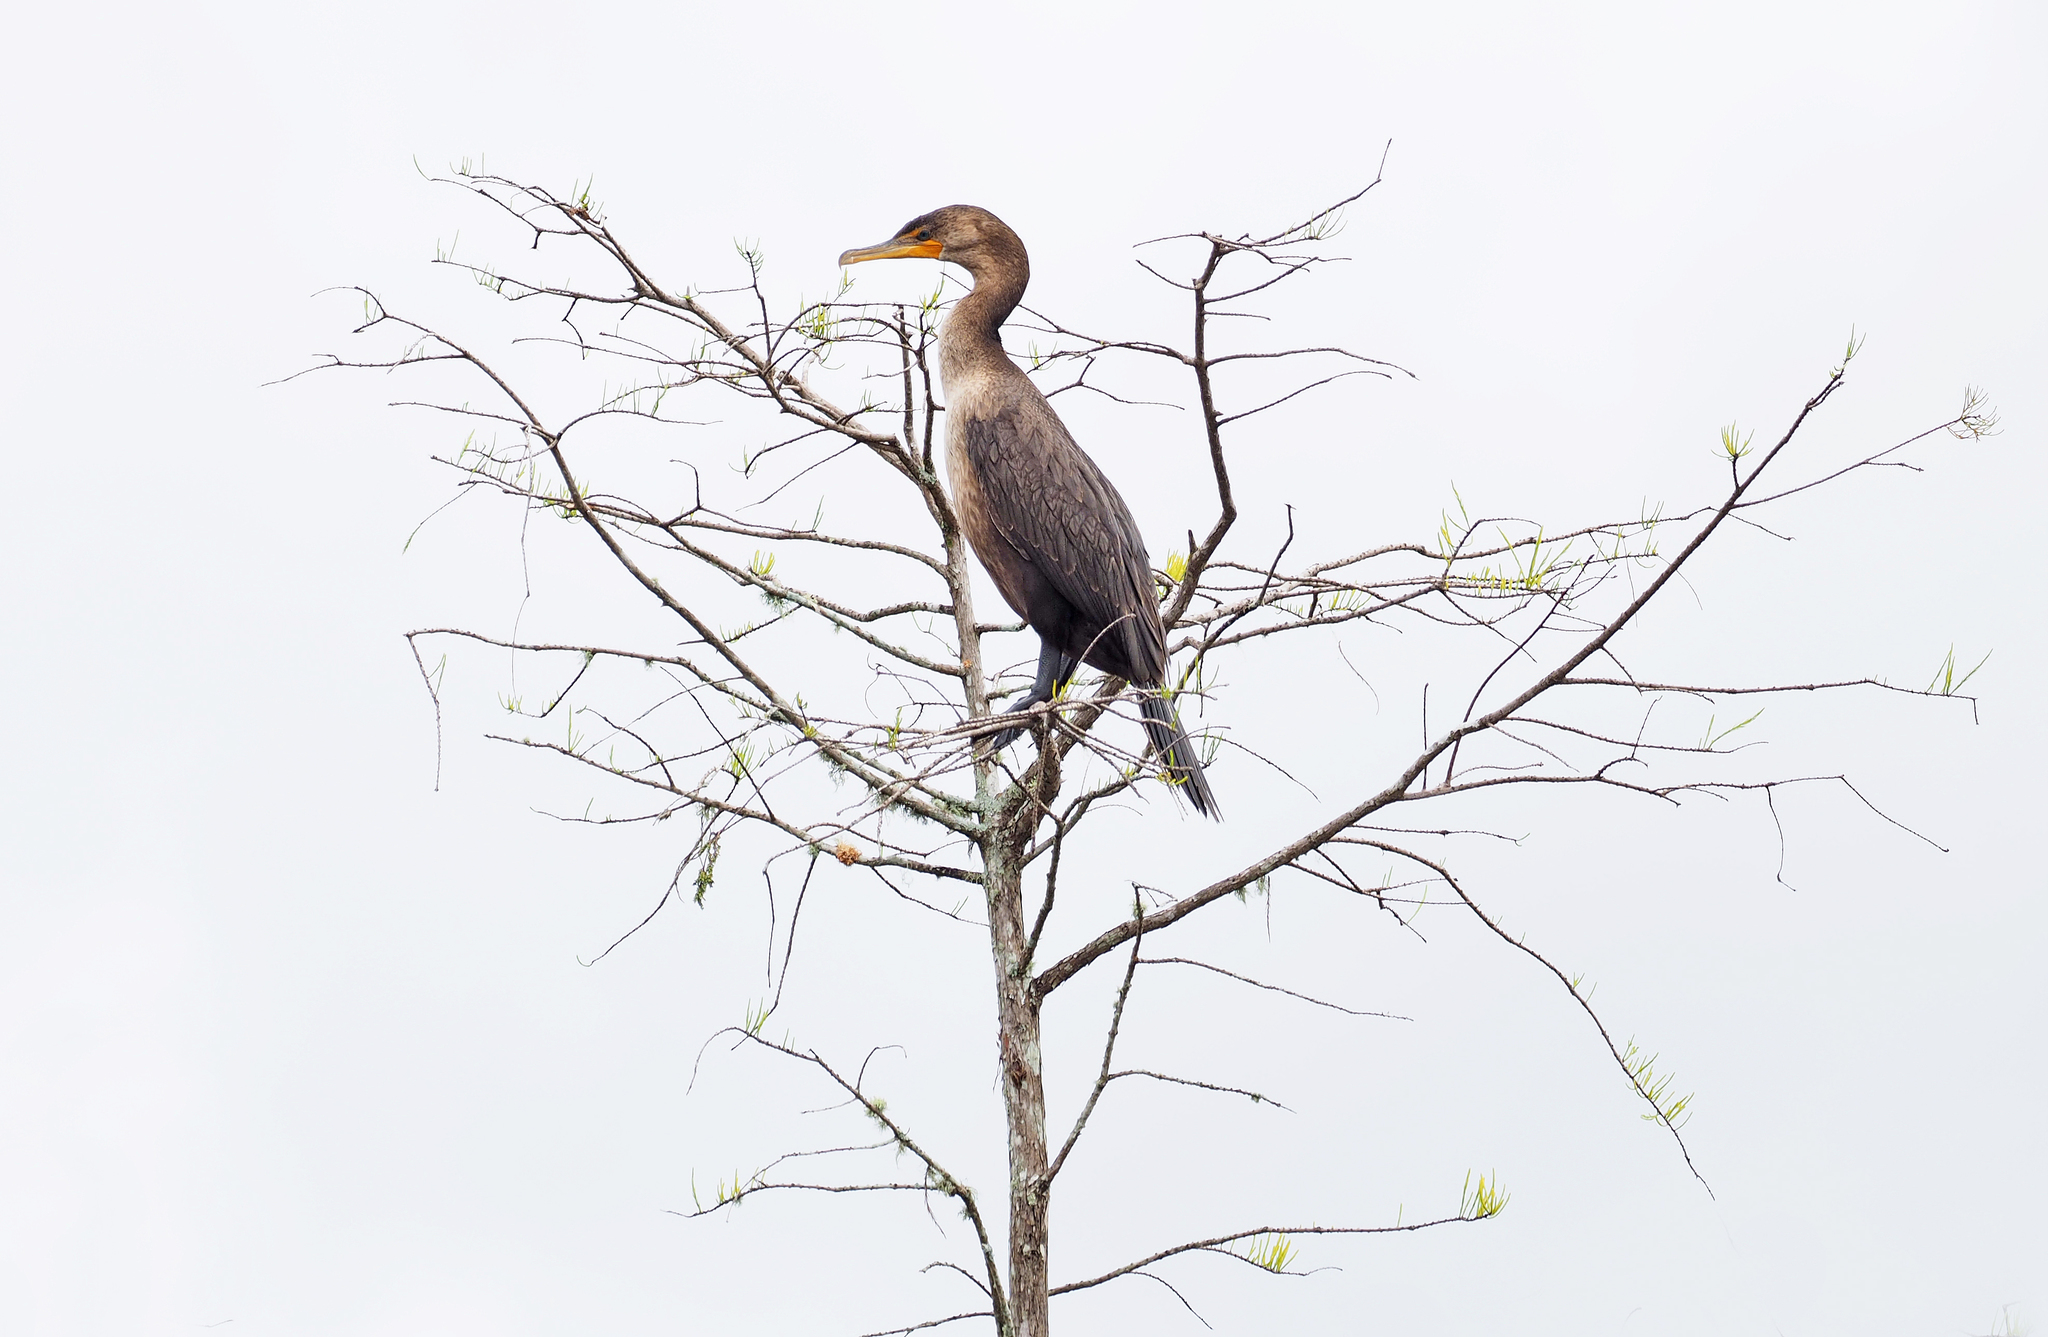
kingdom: Animalia
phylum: Chordata
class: Aves
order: Suliformes
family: Phalacrocoracidae
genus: Phalacrocorax
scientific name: Phalacrocorax auritus
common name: Double-crested cormorant
